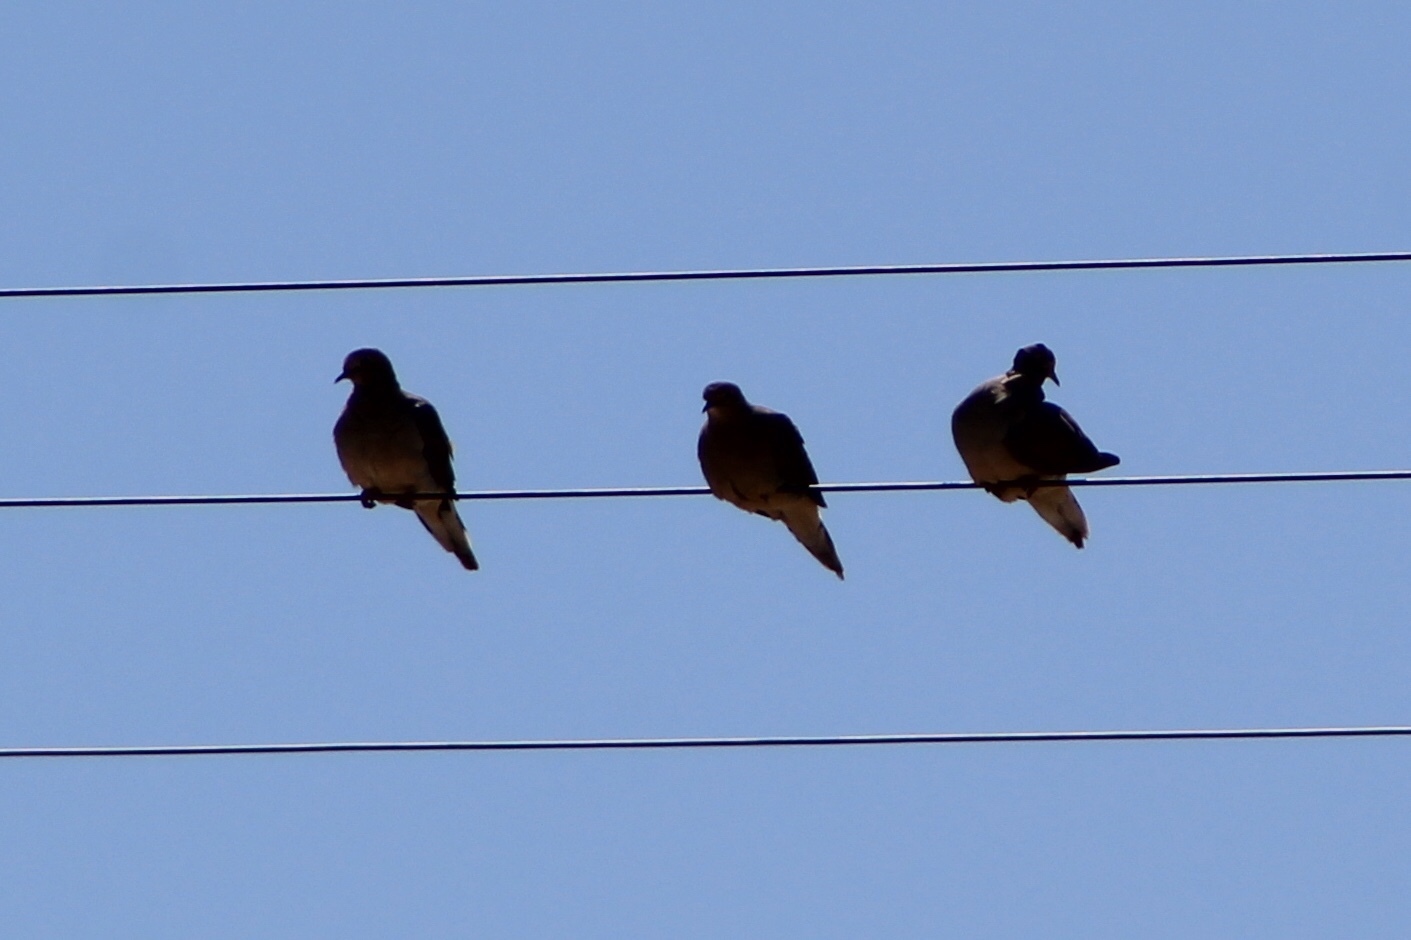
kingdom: Animalia
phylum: Chordata
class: Aves
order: Columbiformes
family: Columbidae
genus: Zenaida
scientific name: Zenaida macroura
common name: Mourning dove
